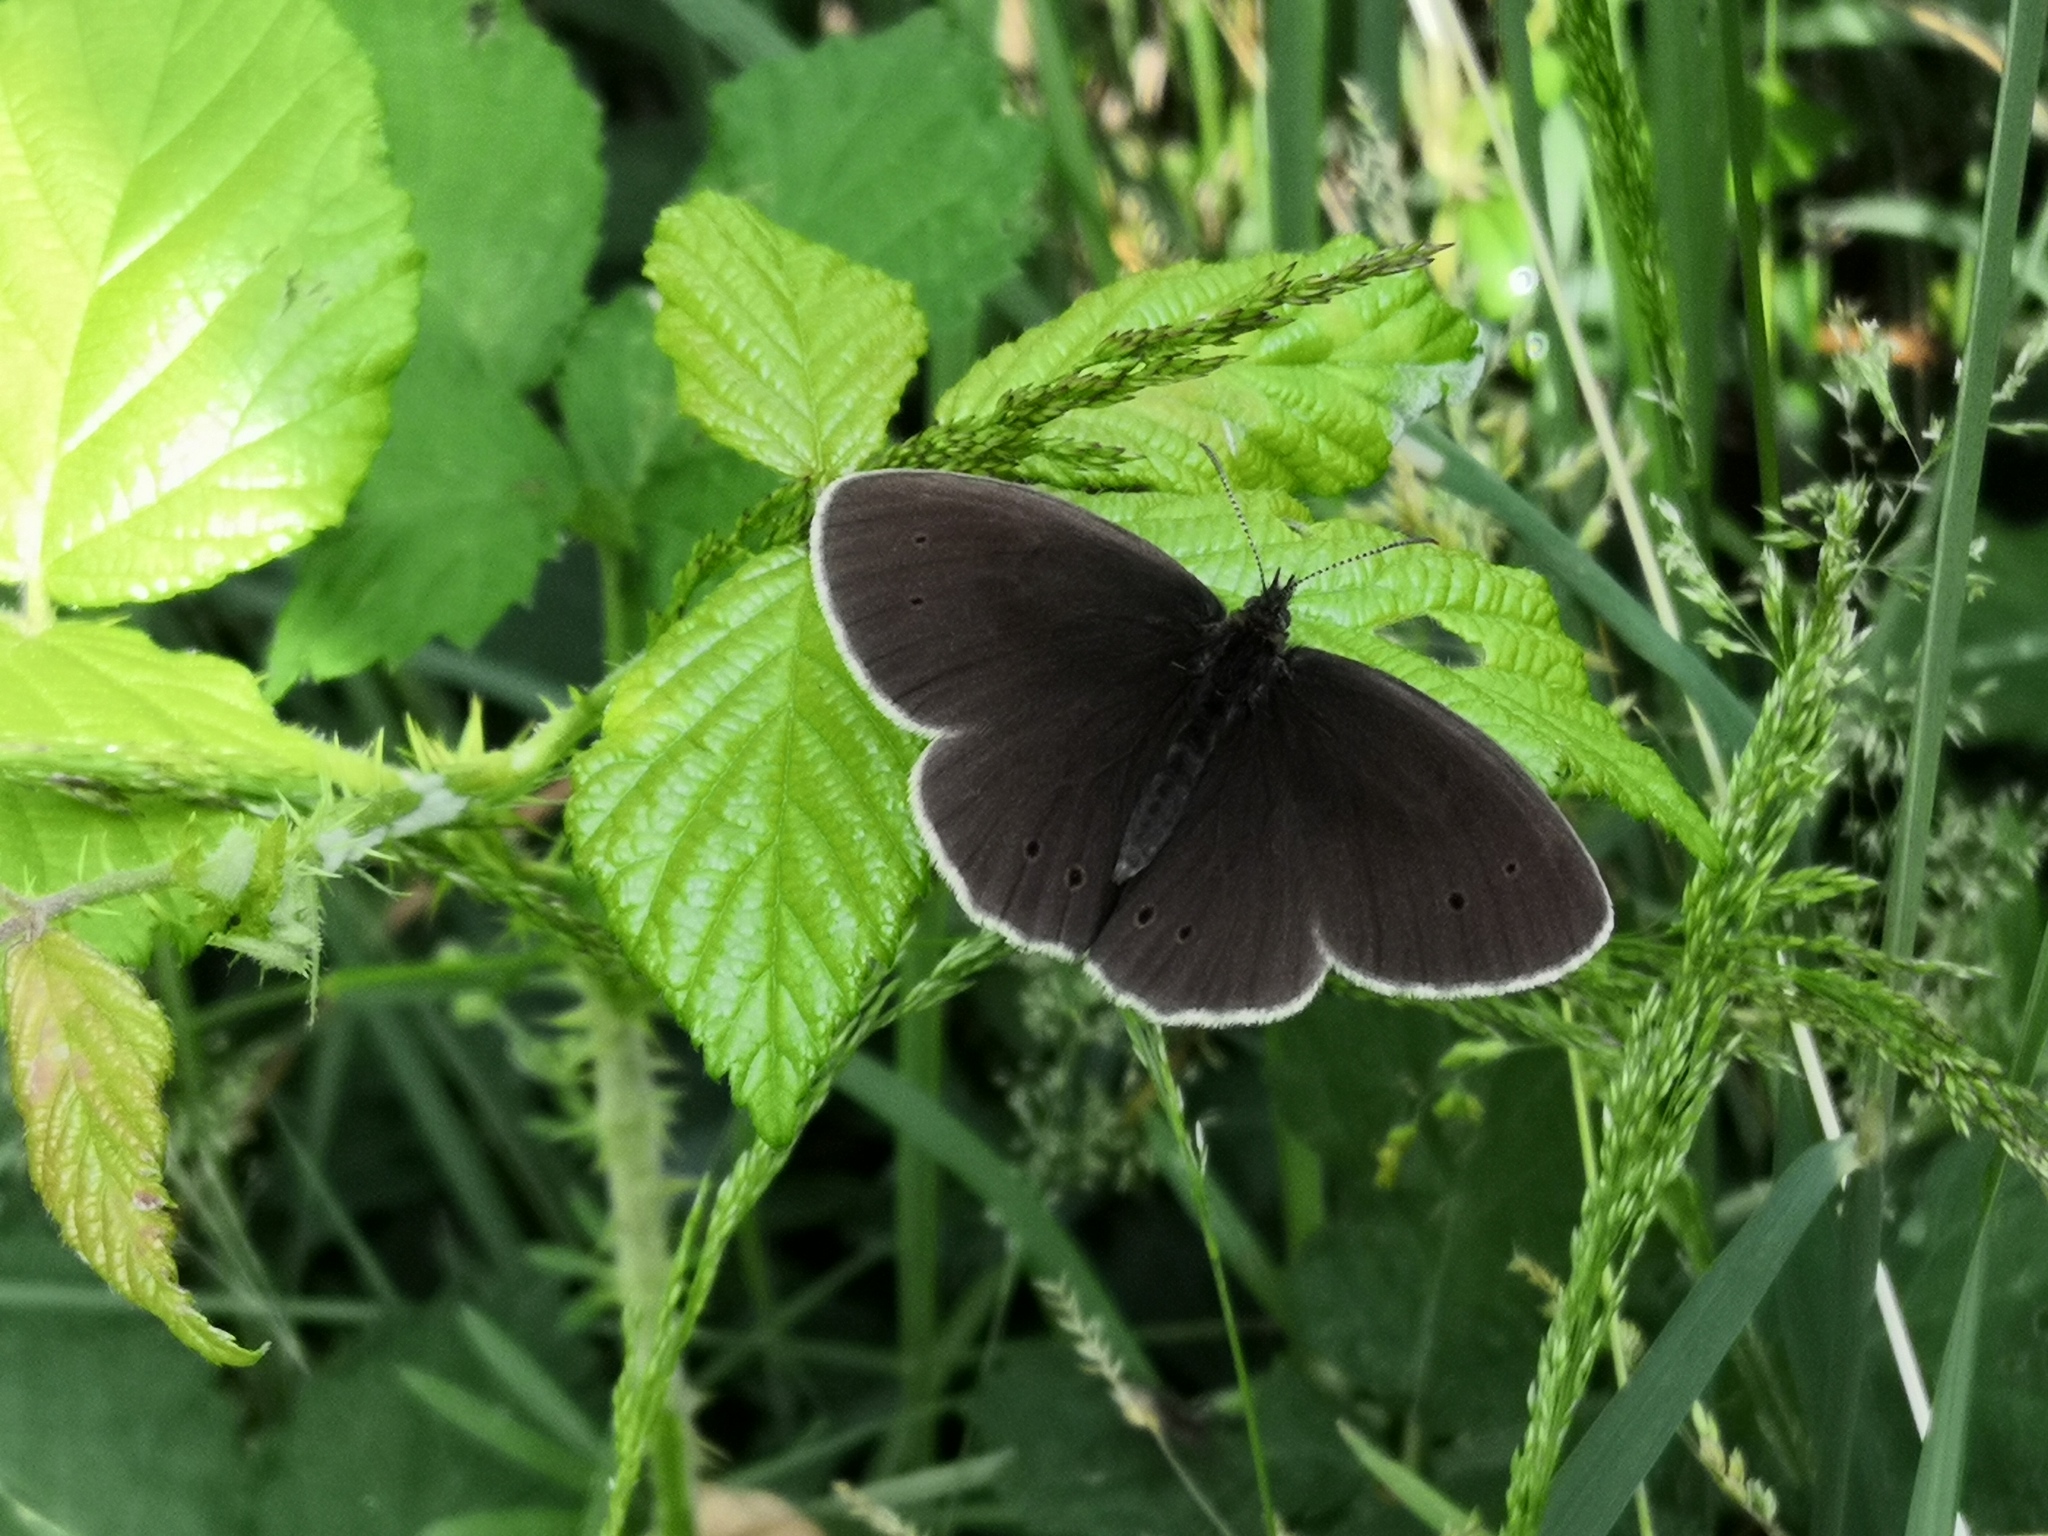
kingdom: Animalia
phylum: Arthropoda
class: Insecta
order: Lepidoptera
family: Nymphalidae
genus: Aphantopus
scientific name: Aphantopus hyperantus
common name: Ringlet
